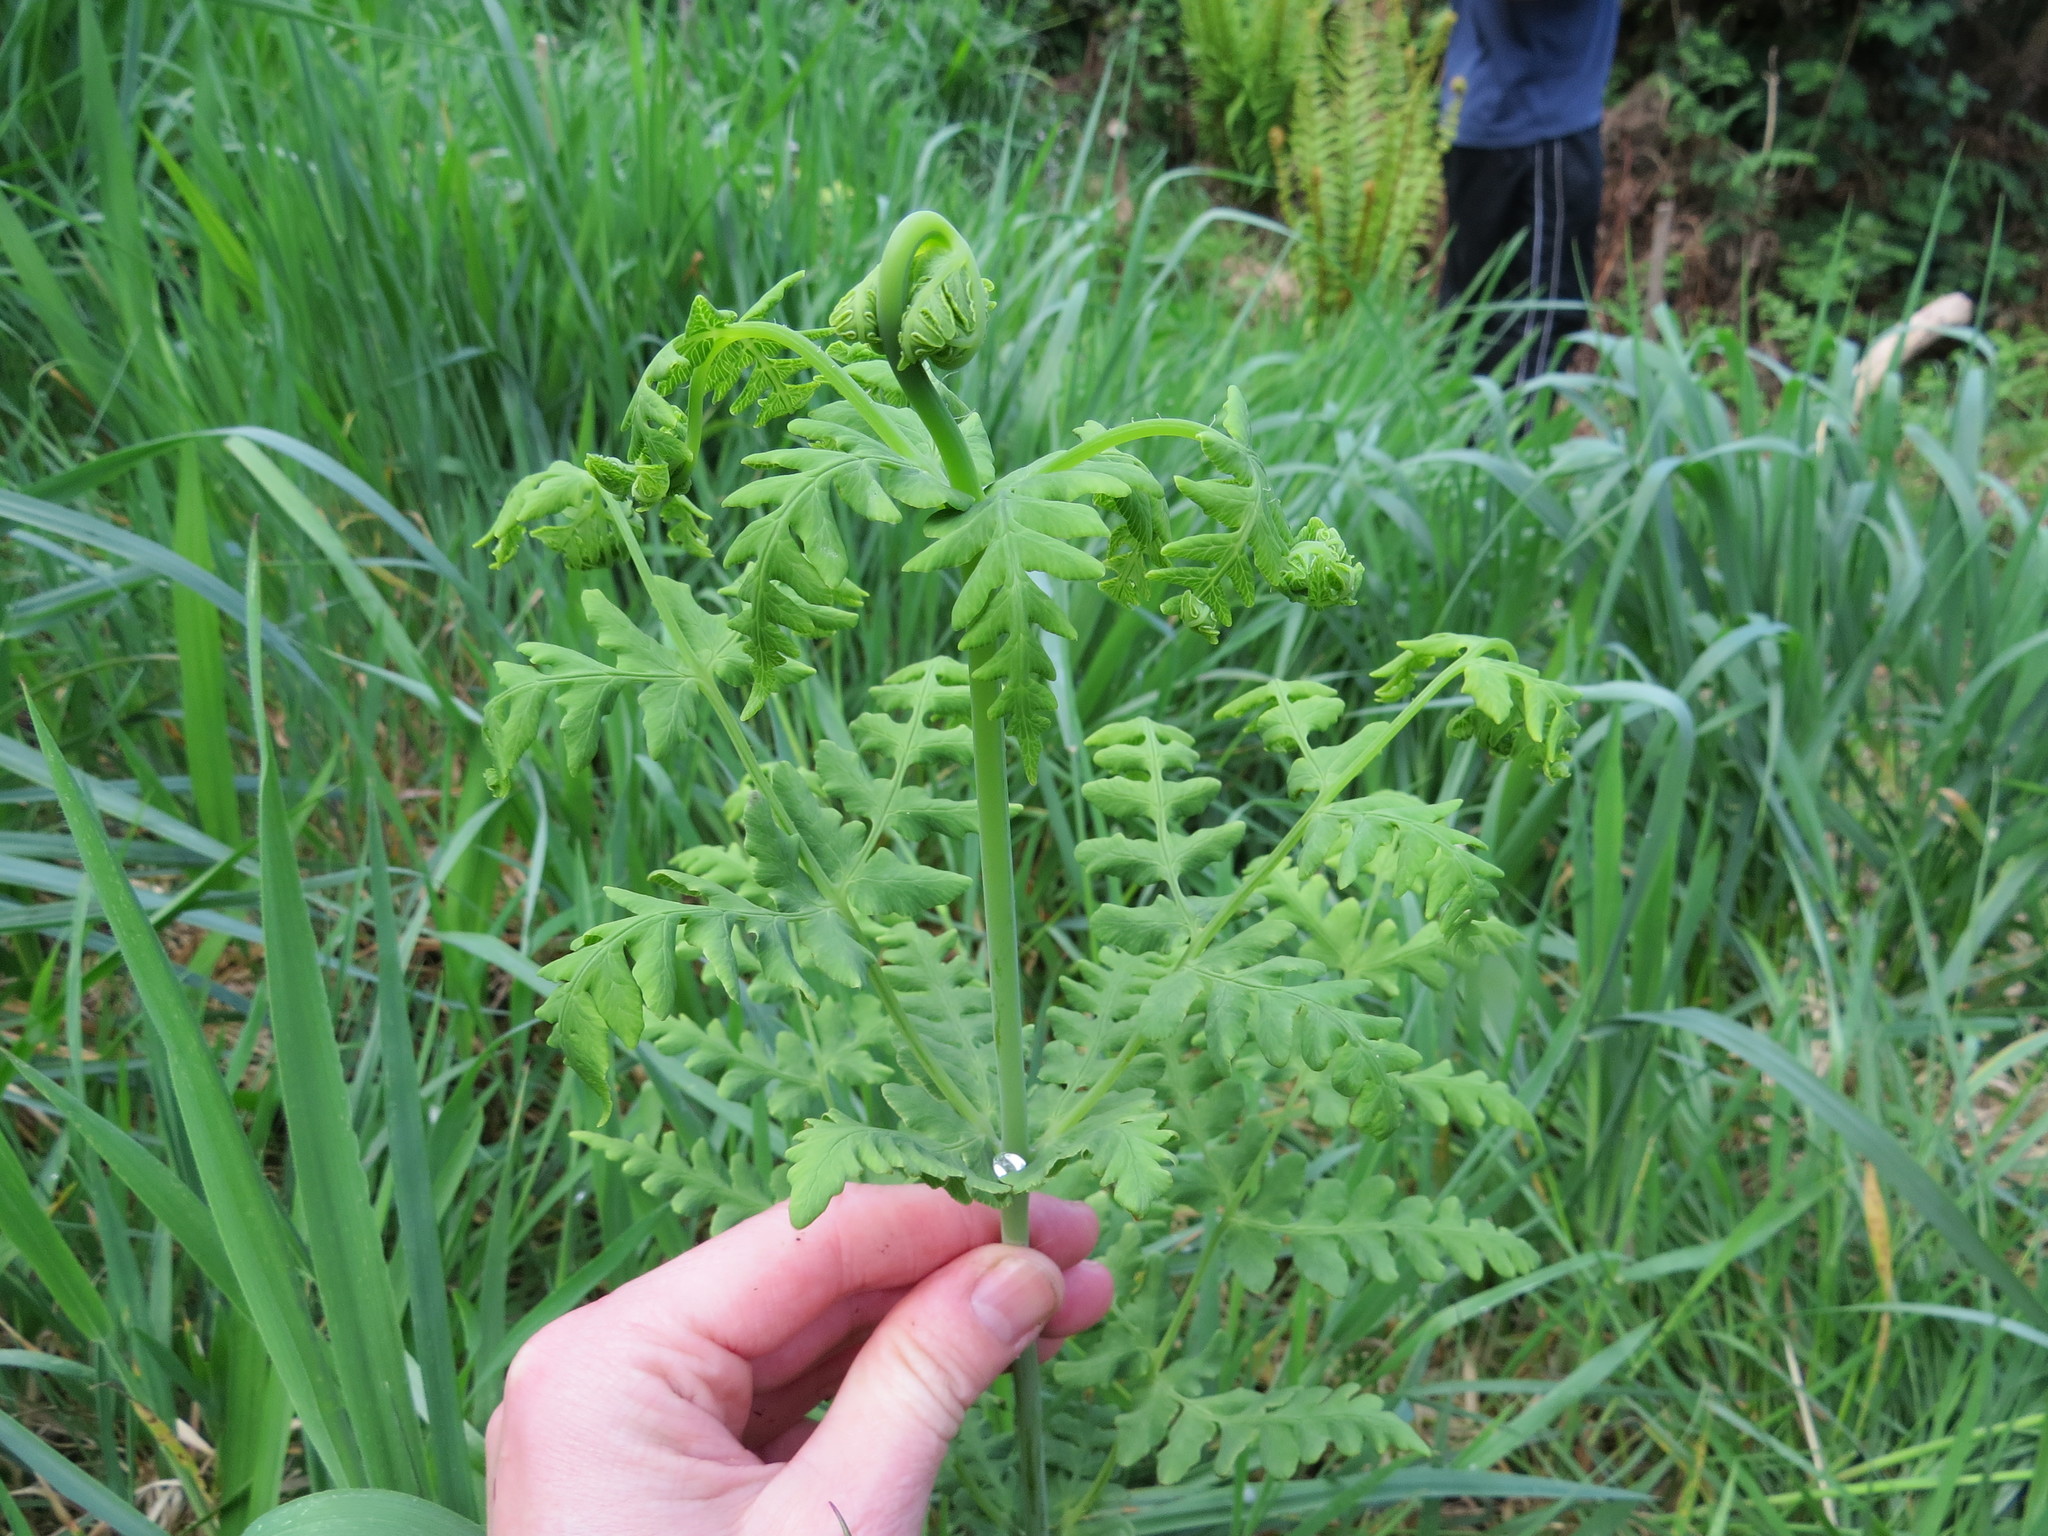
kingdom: Plantae
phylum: Tracheophyta
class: Polypodiopsida
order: Polypodiales
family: Dennstaedtiaceae
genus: Histiopteris
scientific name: Histiopteris incisa
